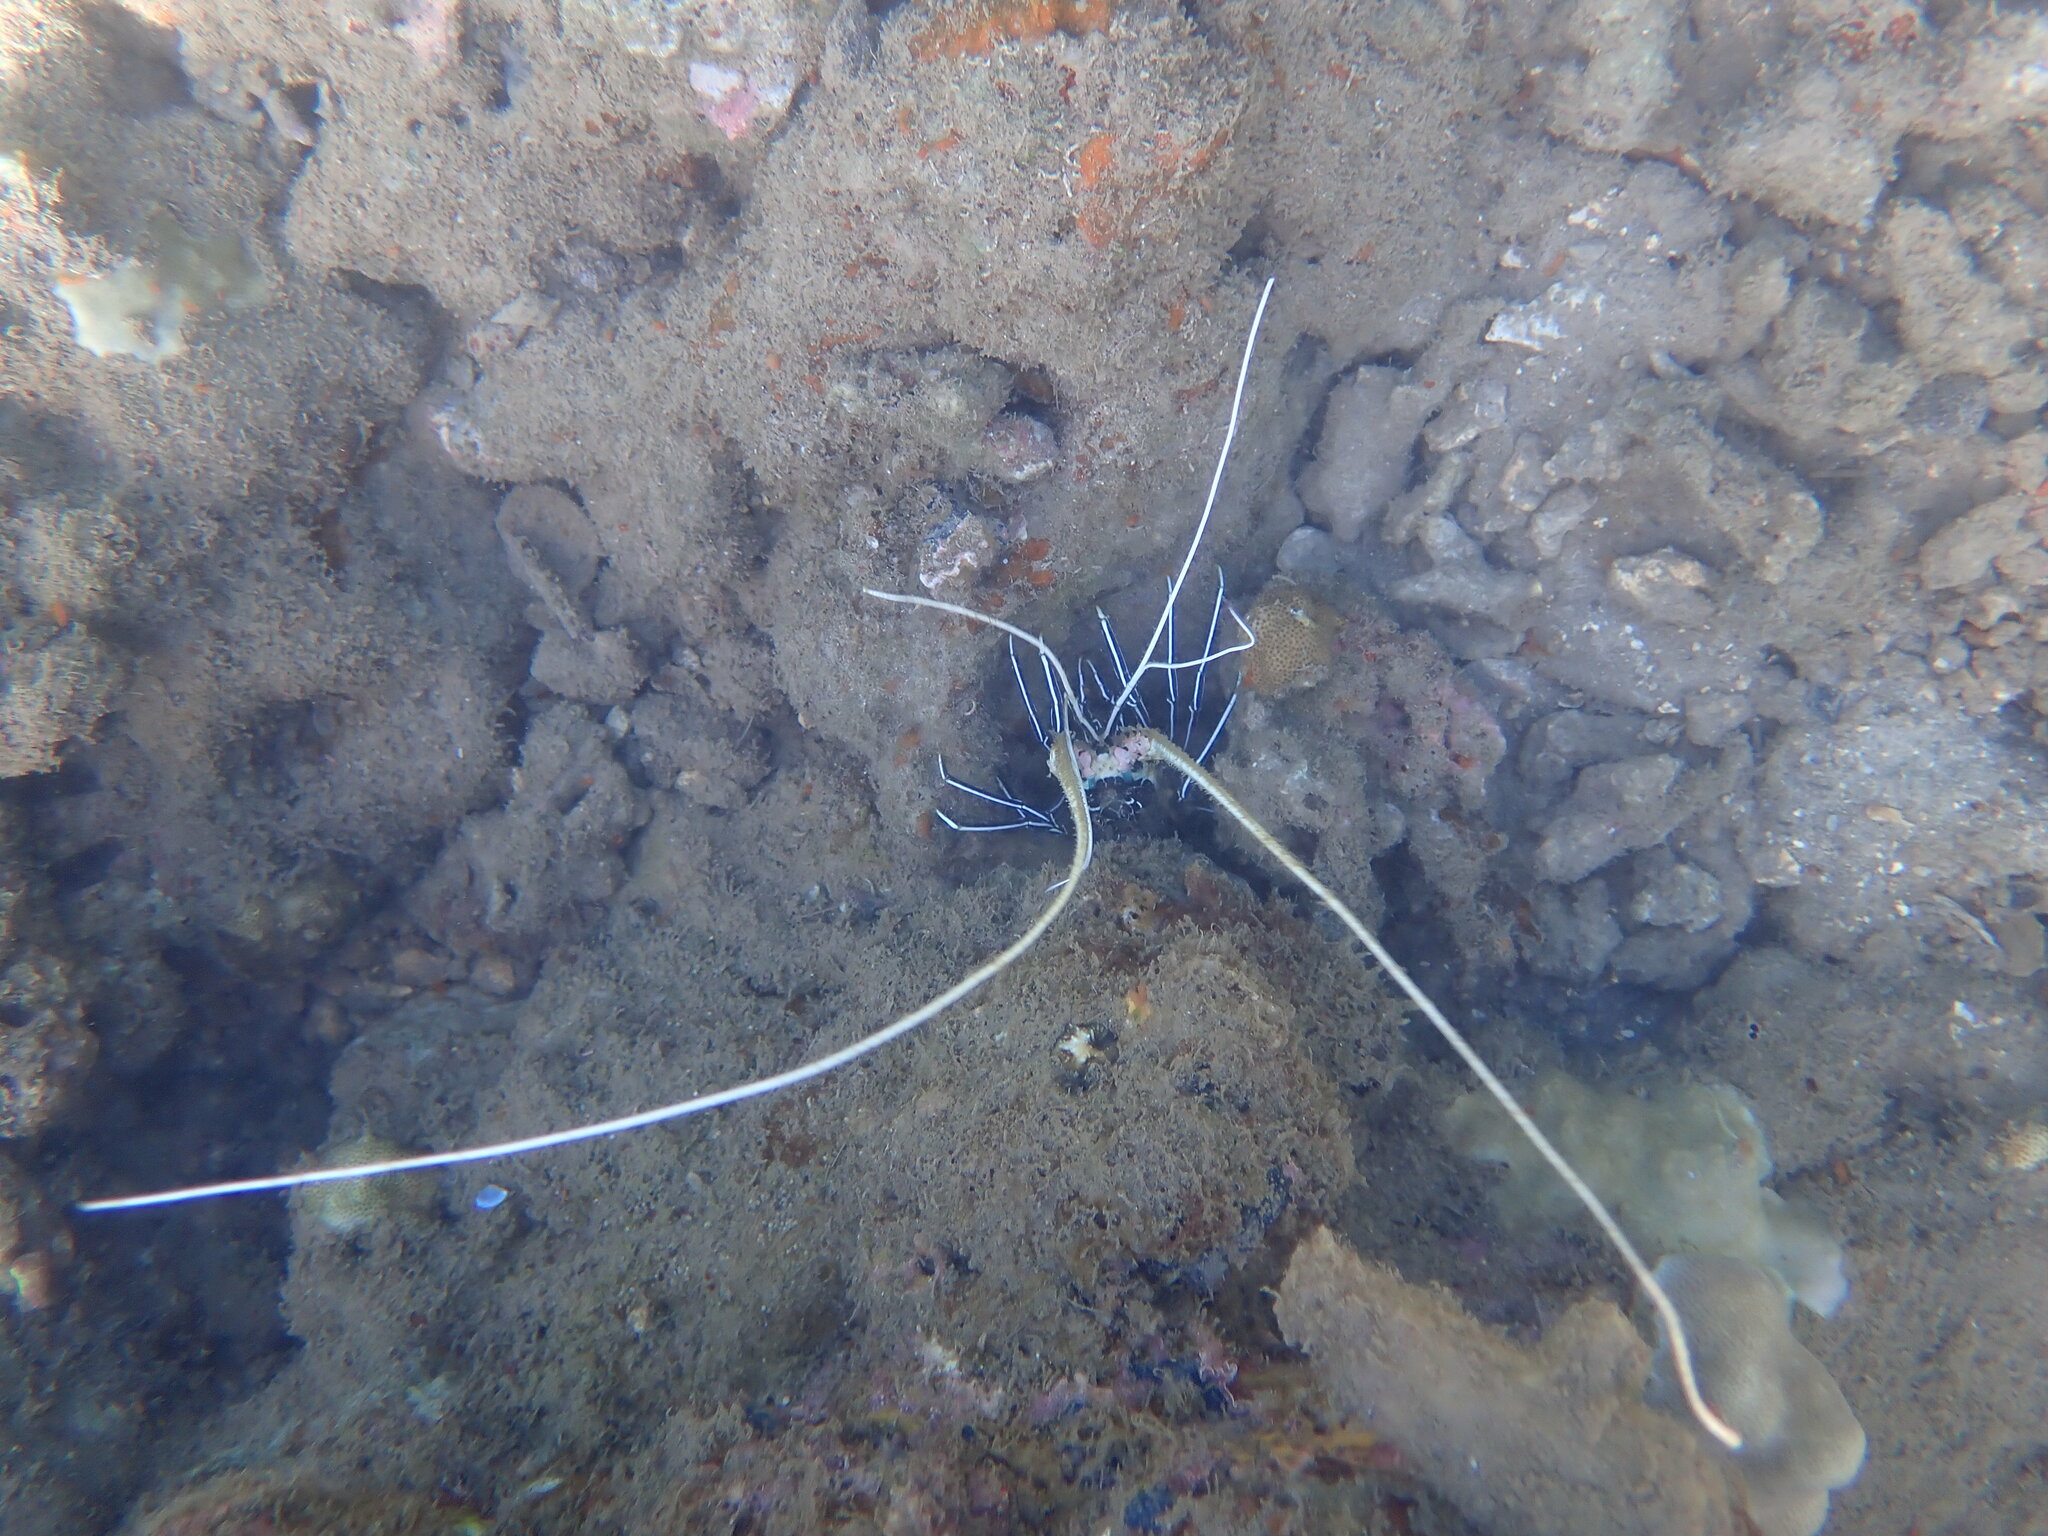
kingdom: Animalia
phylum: Arthropoda
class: Malacostraca
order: Decapoda
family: Palinuridae
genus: Panulirus
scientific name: Panulirus versicolor
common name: Painted spiny lobster
